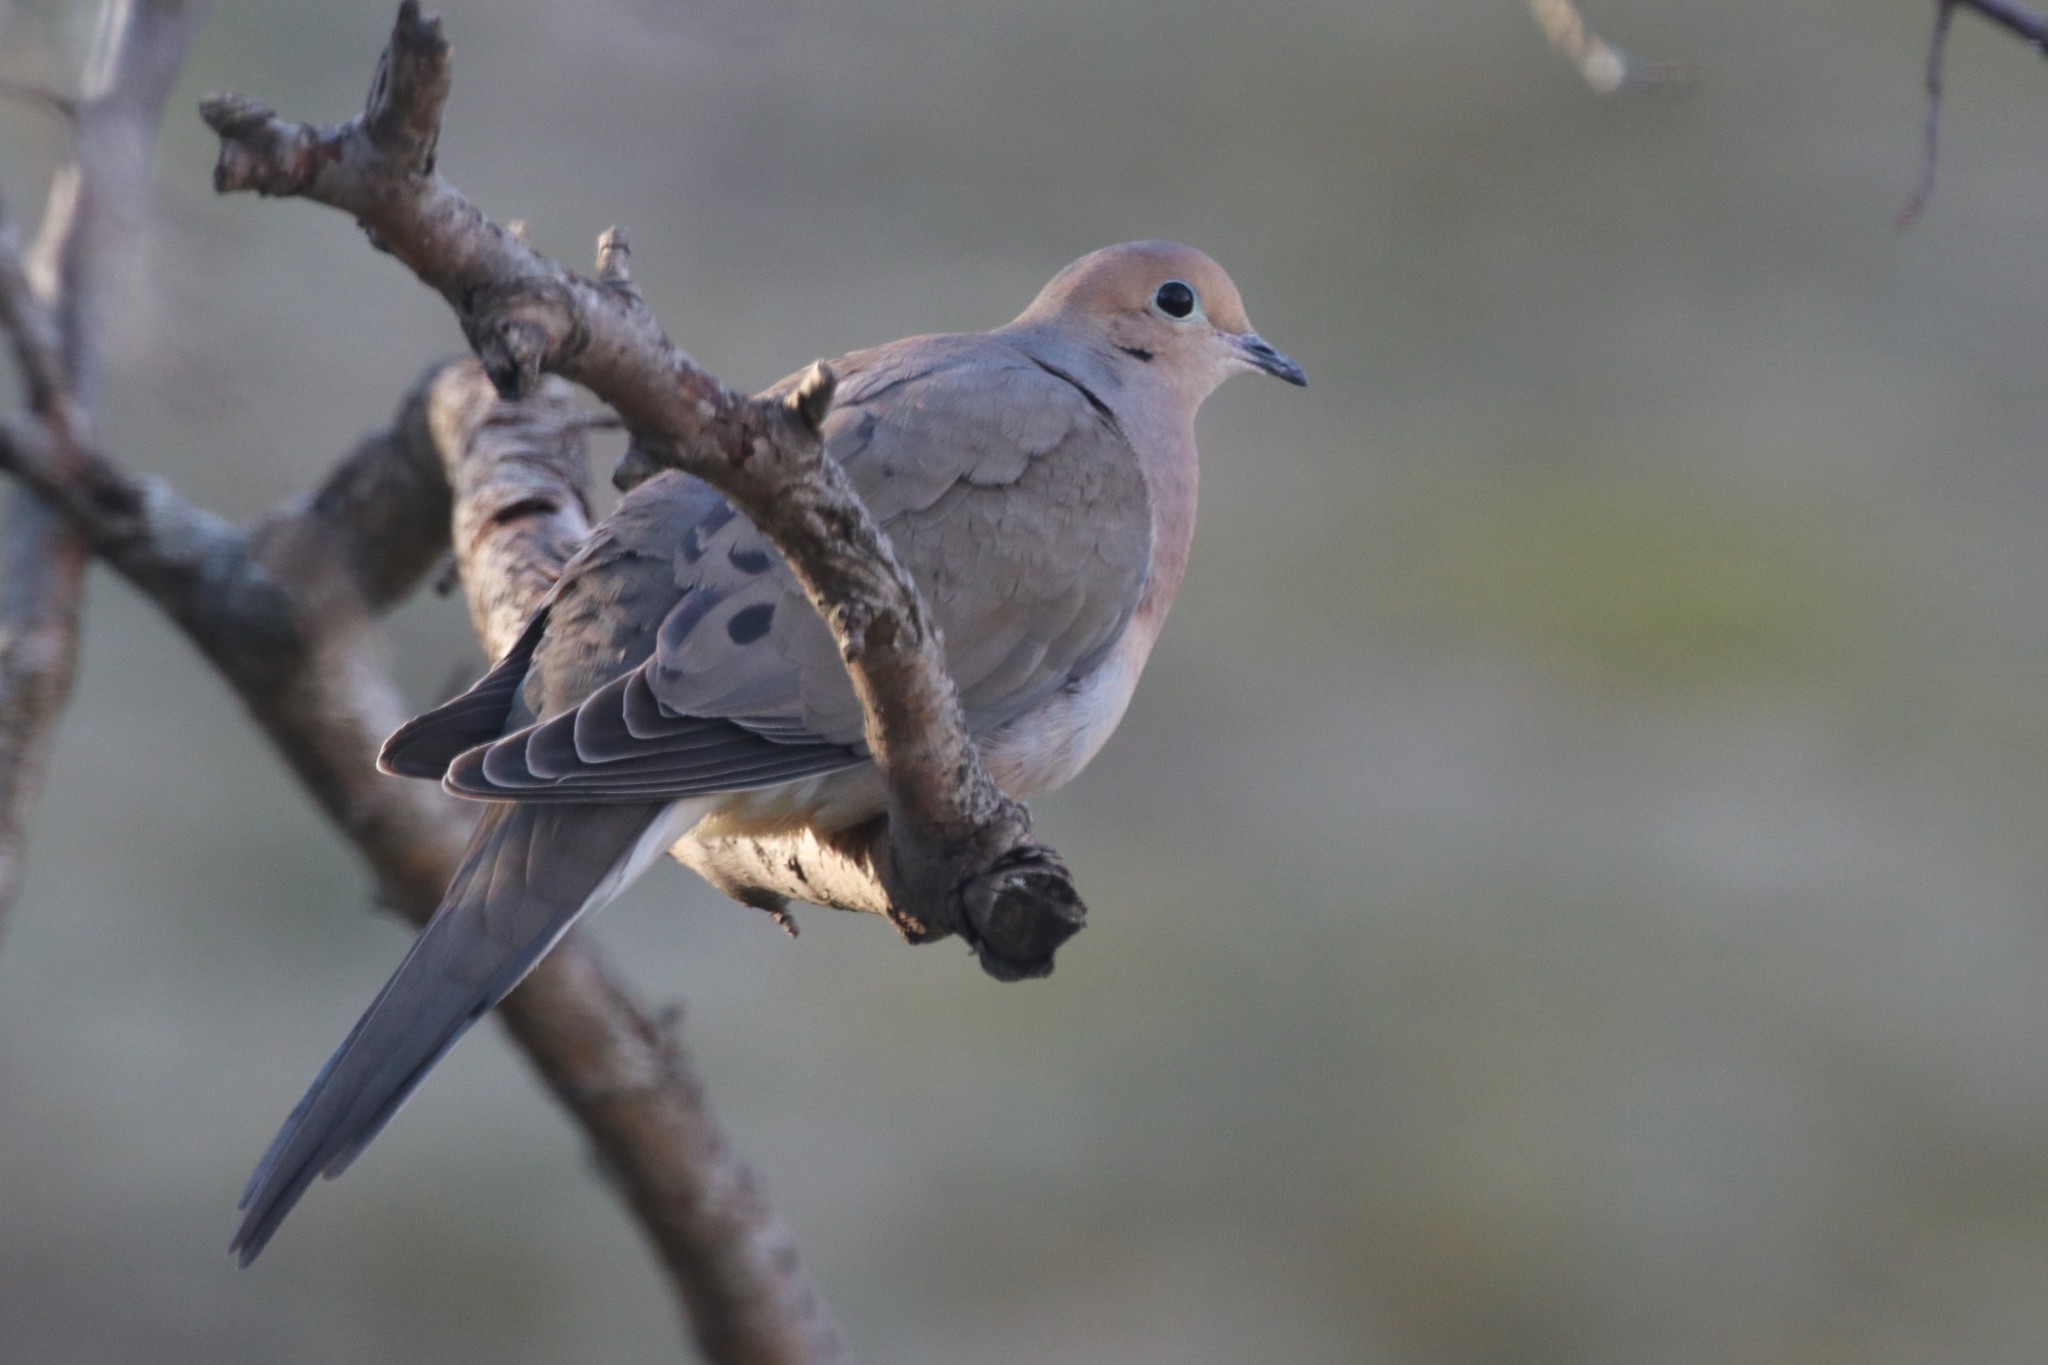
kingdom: Animalia
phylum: Chordata
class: Aves
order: Columbiformes
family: Columbidae
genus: Zenaida
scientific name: Zenaida macroura
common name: Mourning dove
